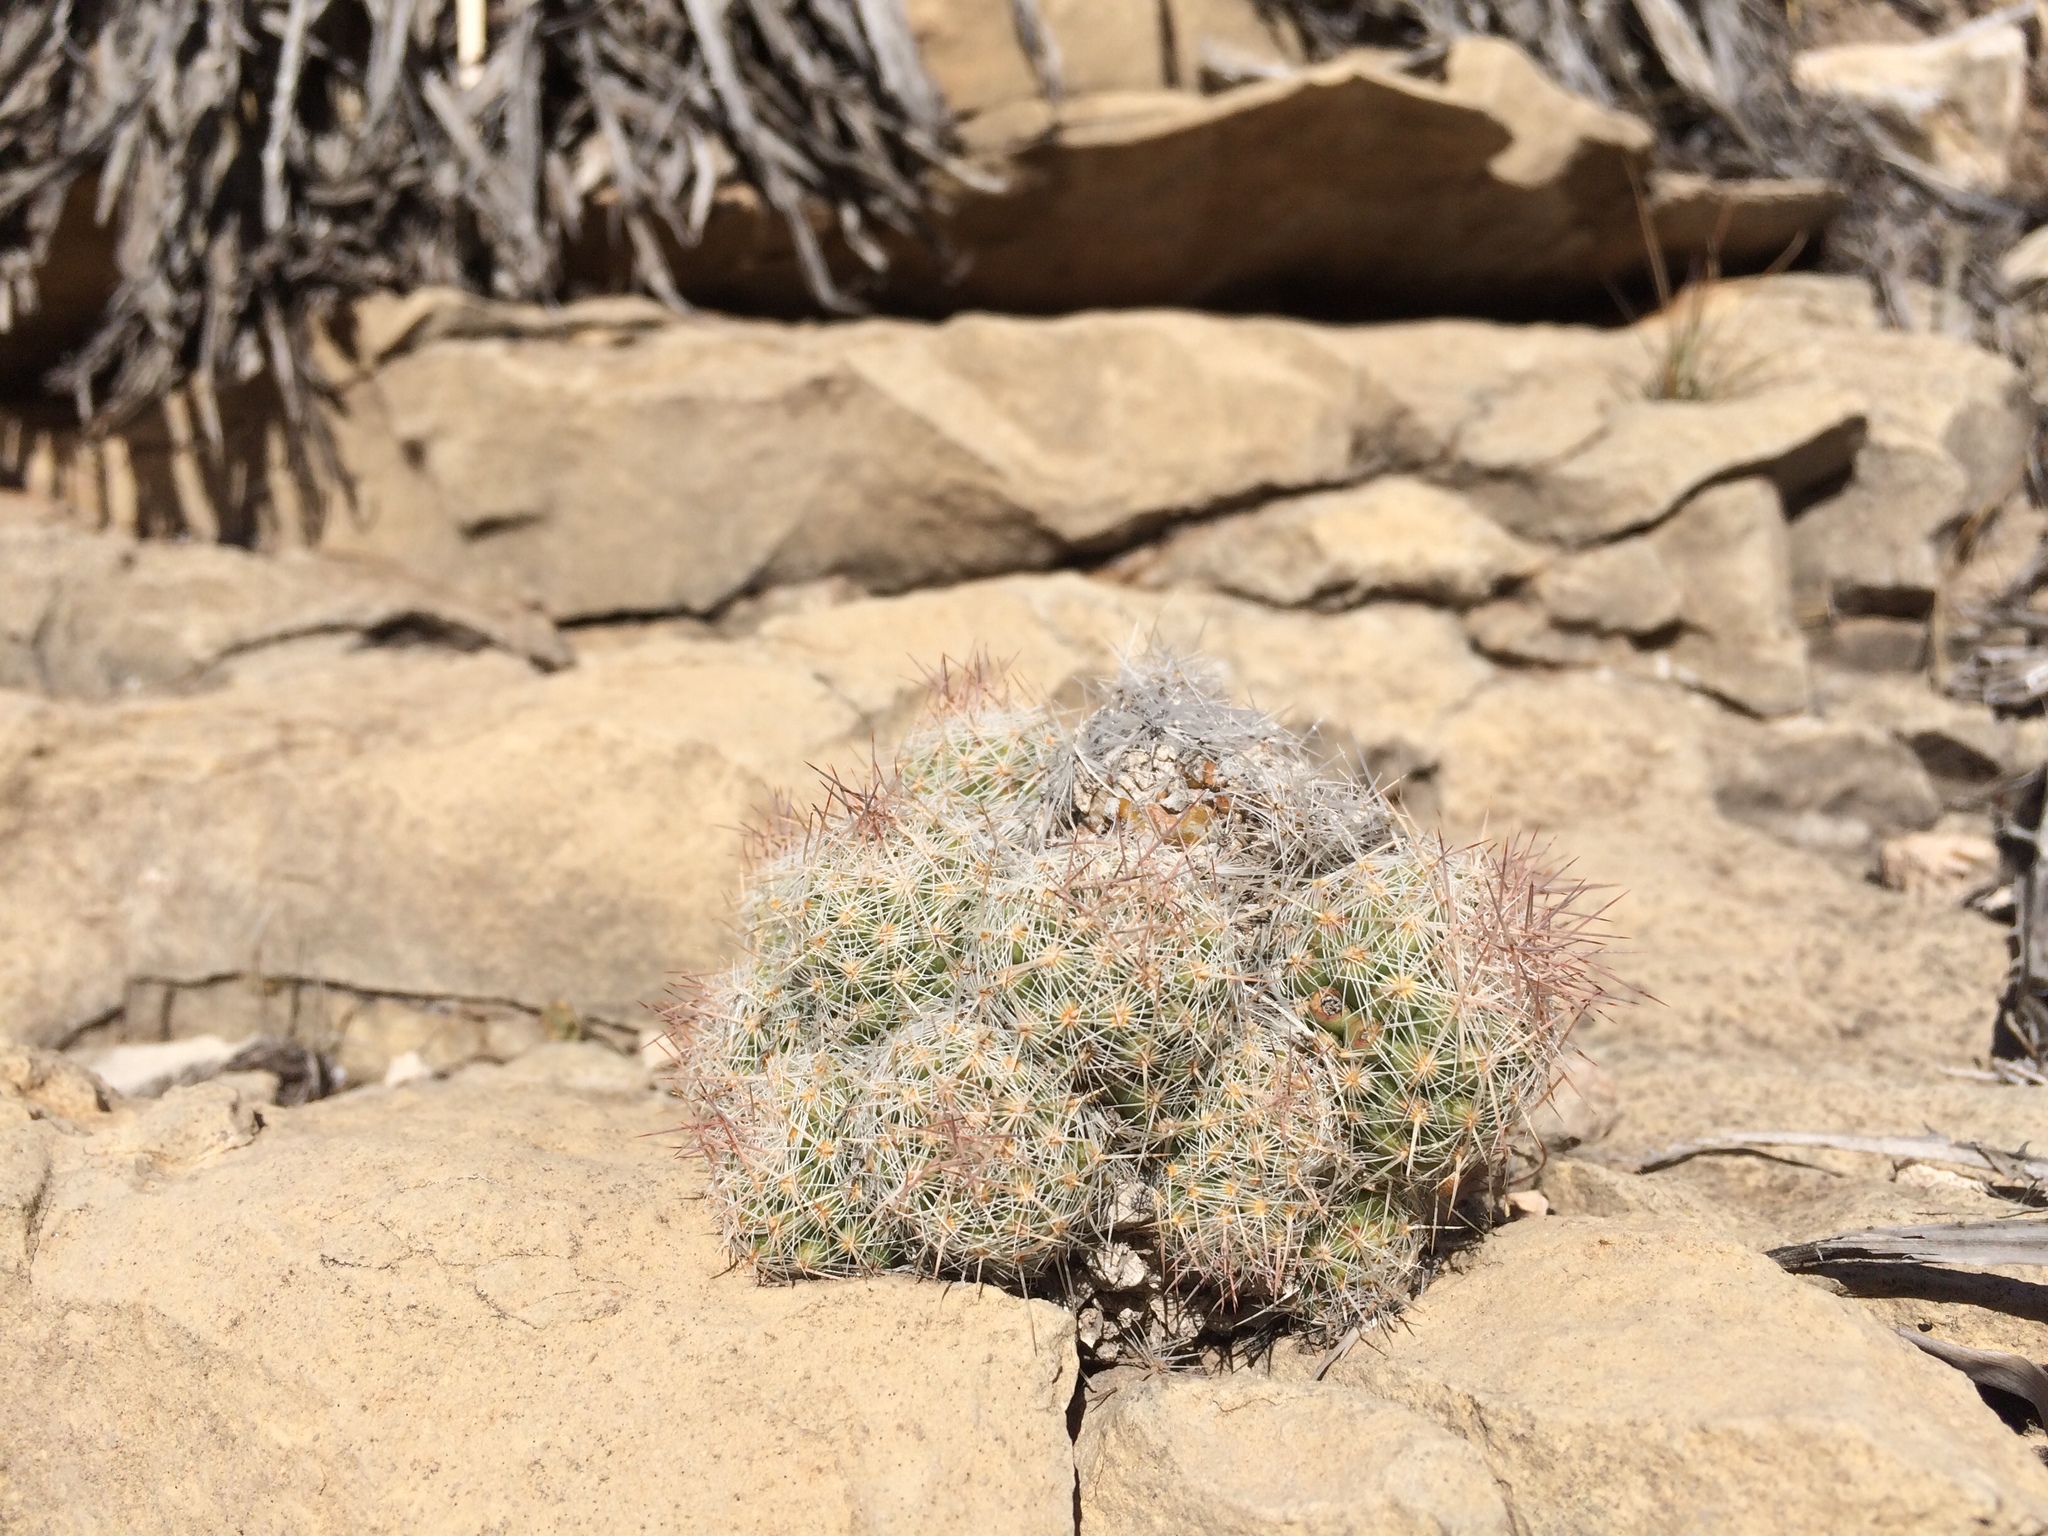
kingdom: Plantae
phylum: Tracheophyta
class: Magnoliopsida
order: Caryophyllales
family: Cactaceae
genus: Pelecyphora
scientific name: Pelecyphora tuberculosa
